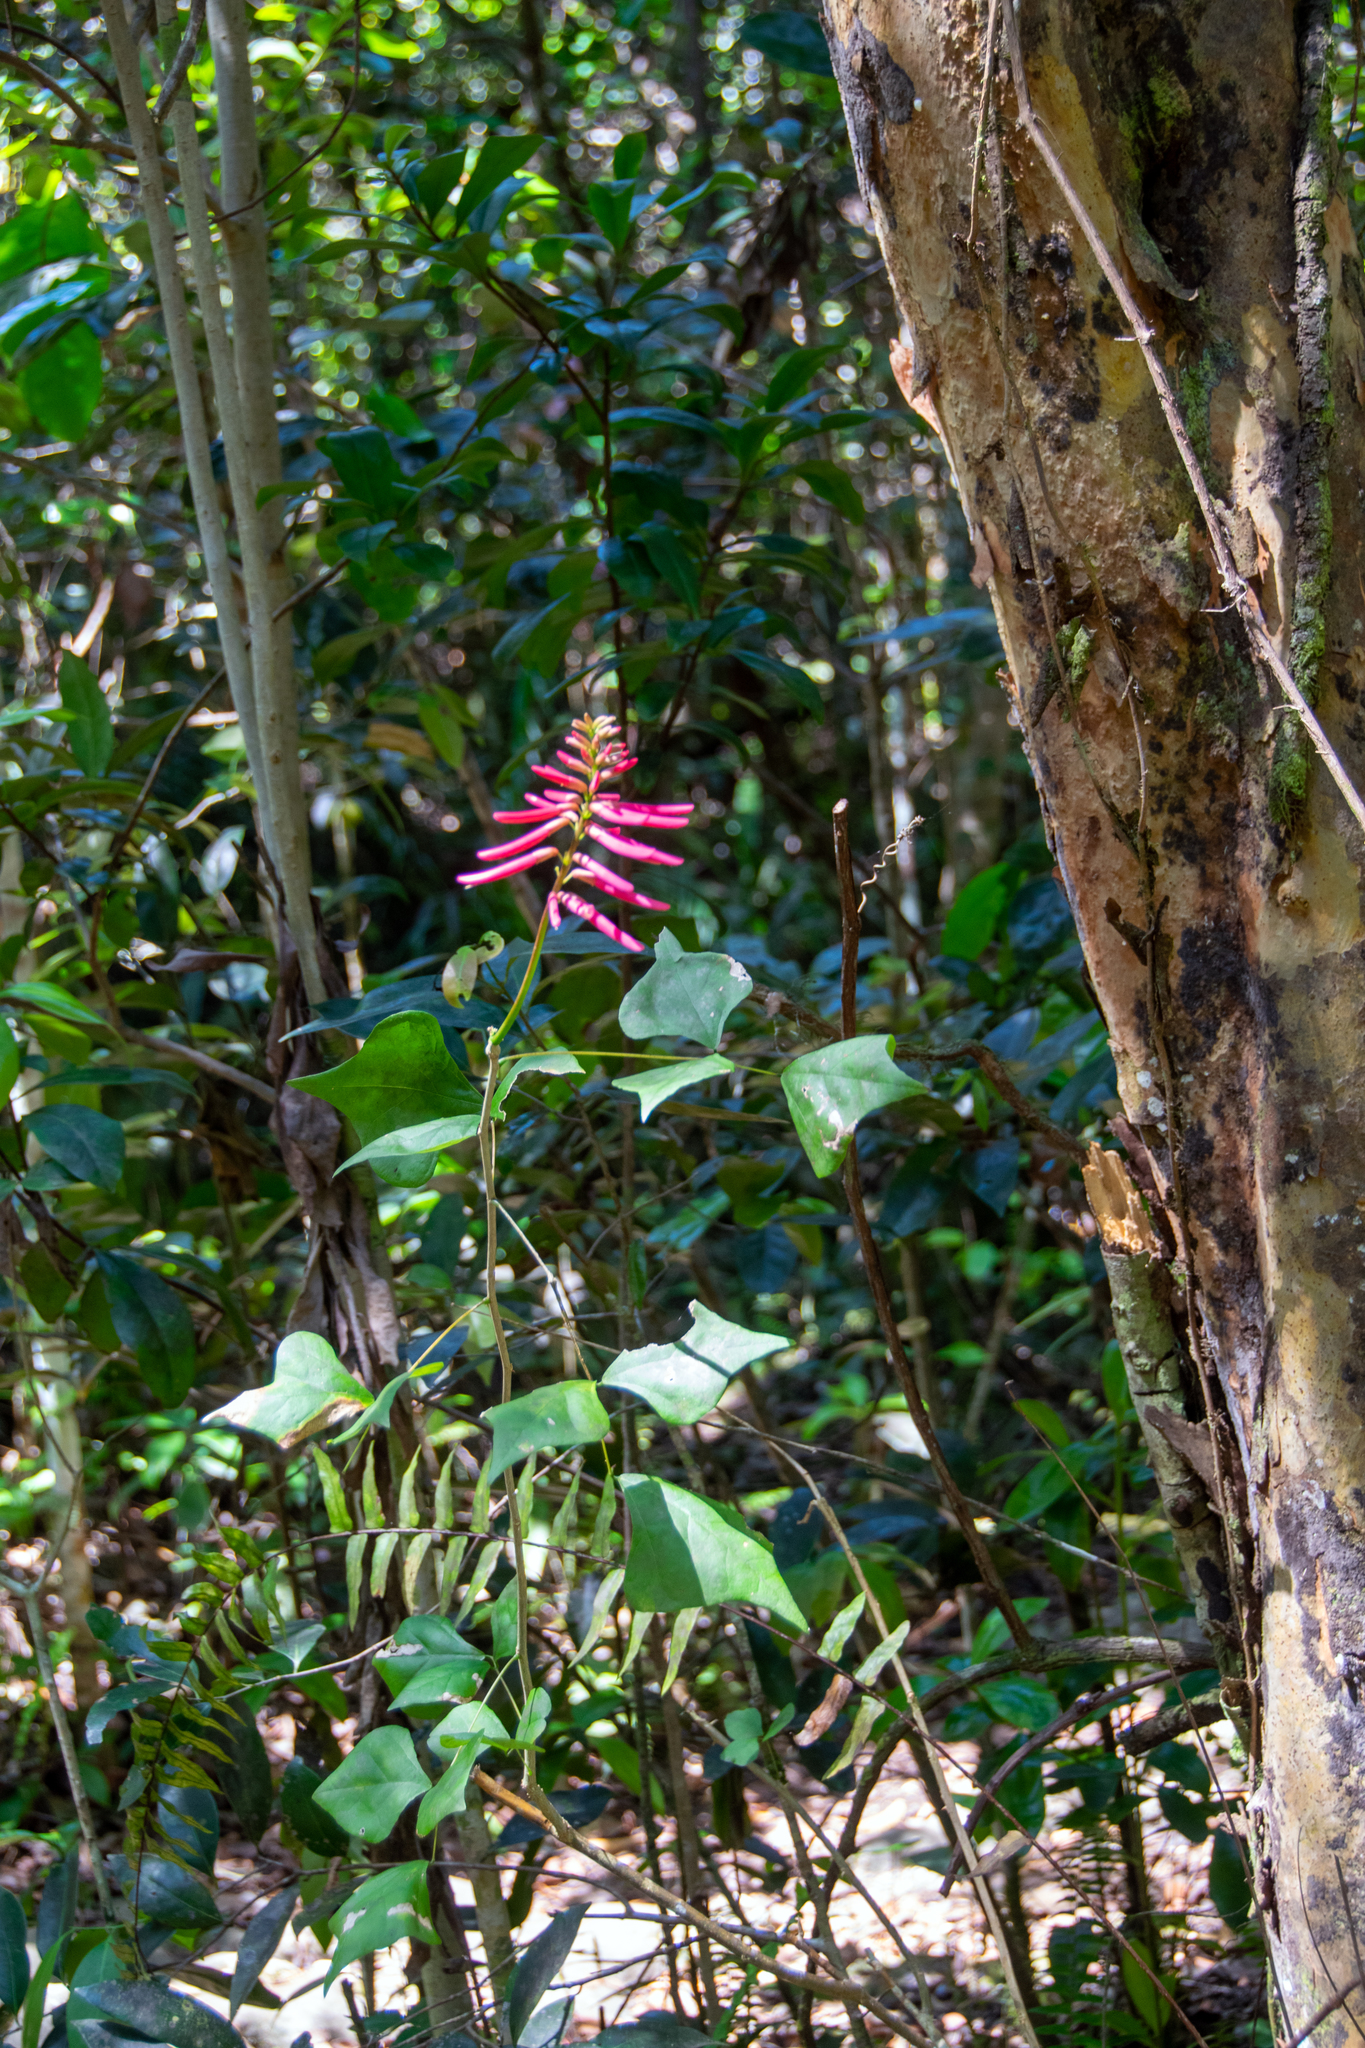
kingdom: Plantae
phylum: Tracheophyta
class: Magnoliopsida
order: Fabales
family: Fabaceae
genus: Erythrina
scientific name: Erythrina herbacea
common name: Coral-bean
